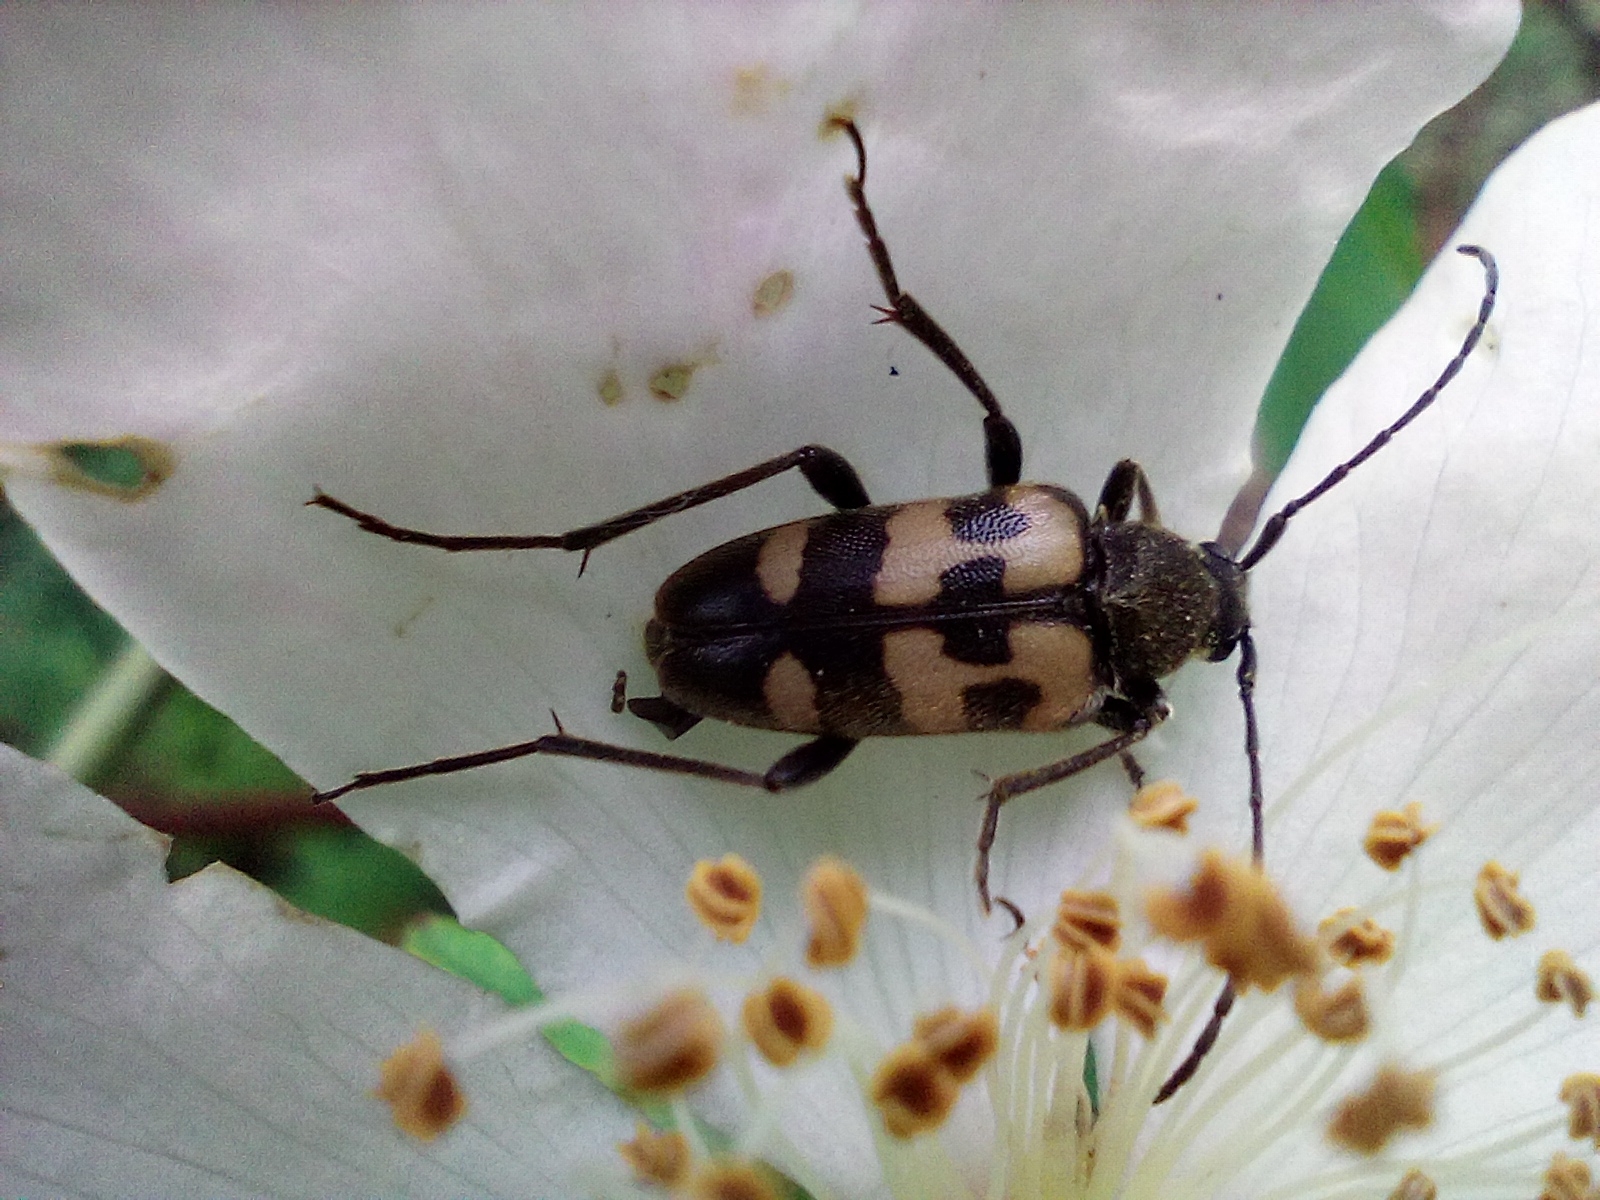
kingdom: Animalia
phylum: Arthropoda
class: Insecta
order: Coleoptera
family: Cerambycidae
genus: Pachytodes
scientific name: Pachytodes
